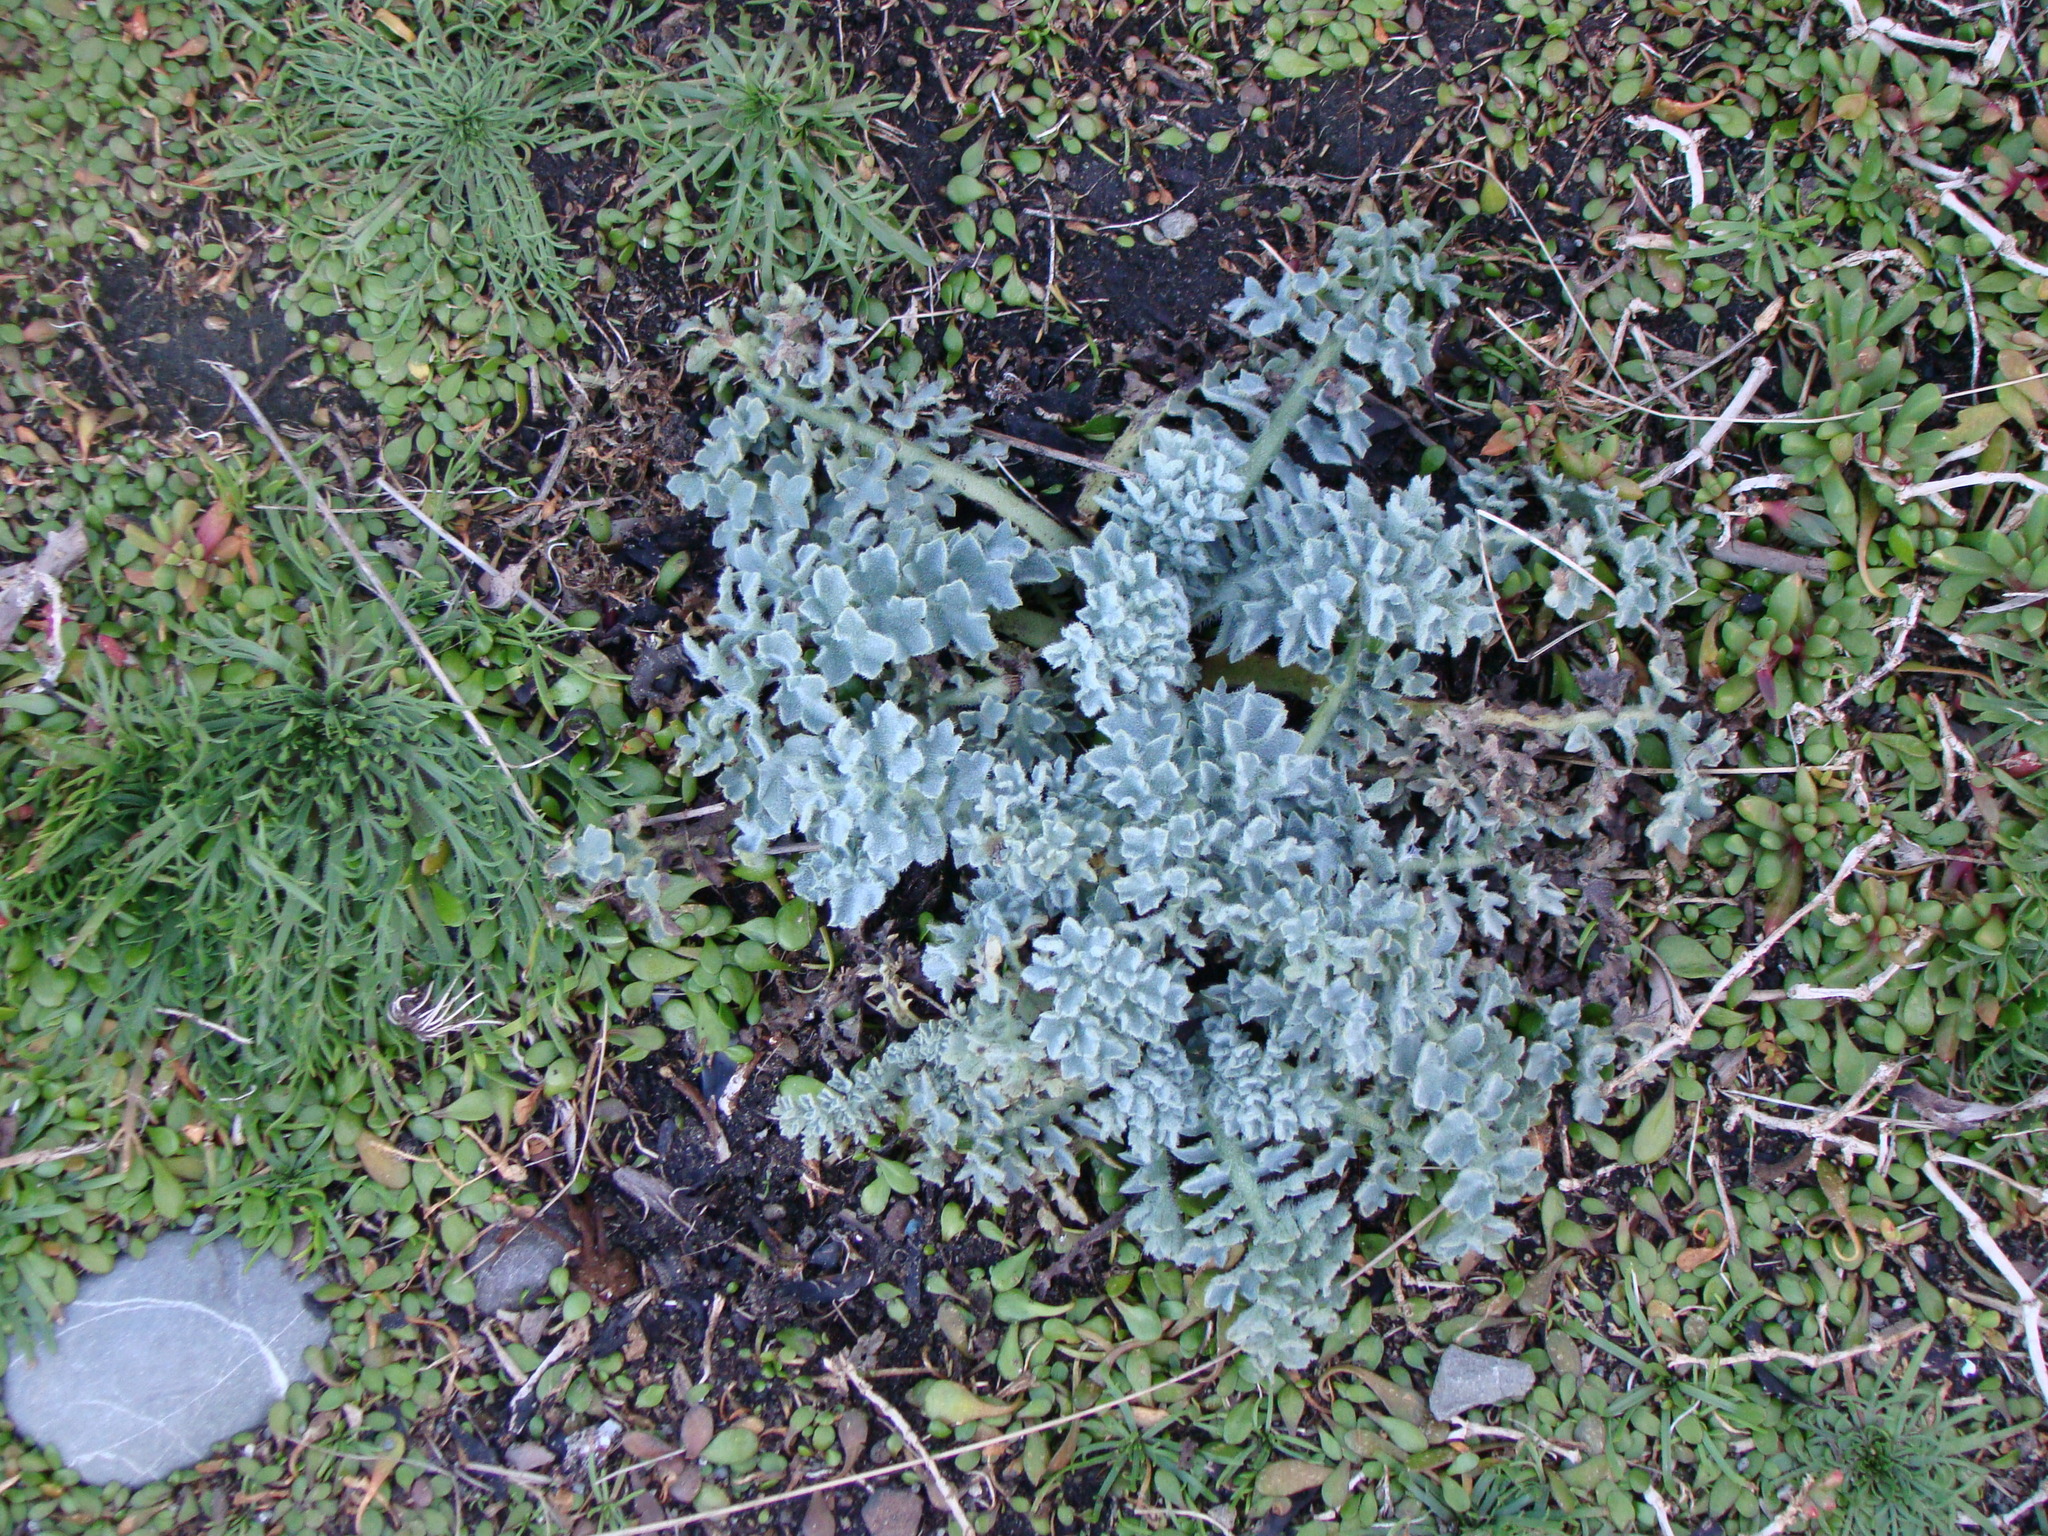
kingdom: Plantae
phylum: Tracheophyta
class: Magnoliopsida
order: Ranunculales
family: Papaveraceae
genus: Glaucium
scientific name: Glaucium flavum
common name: Yellow horned-poppy
